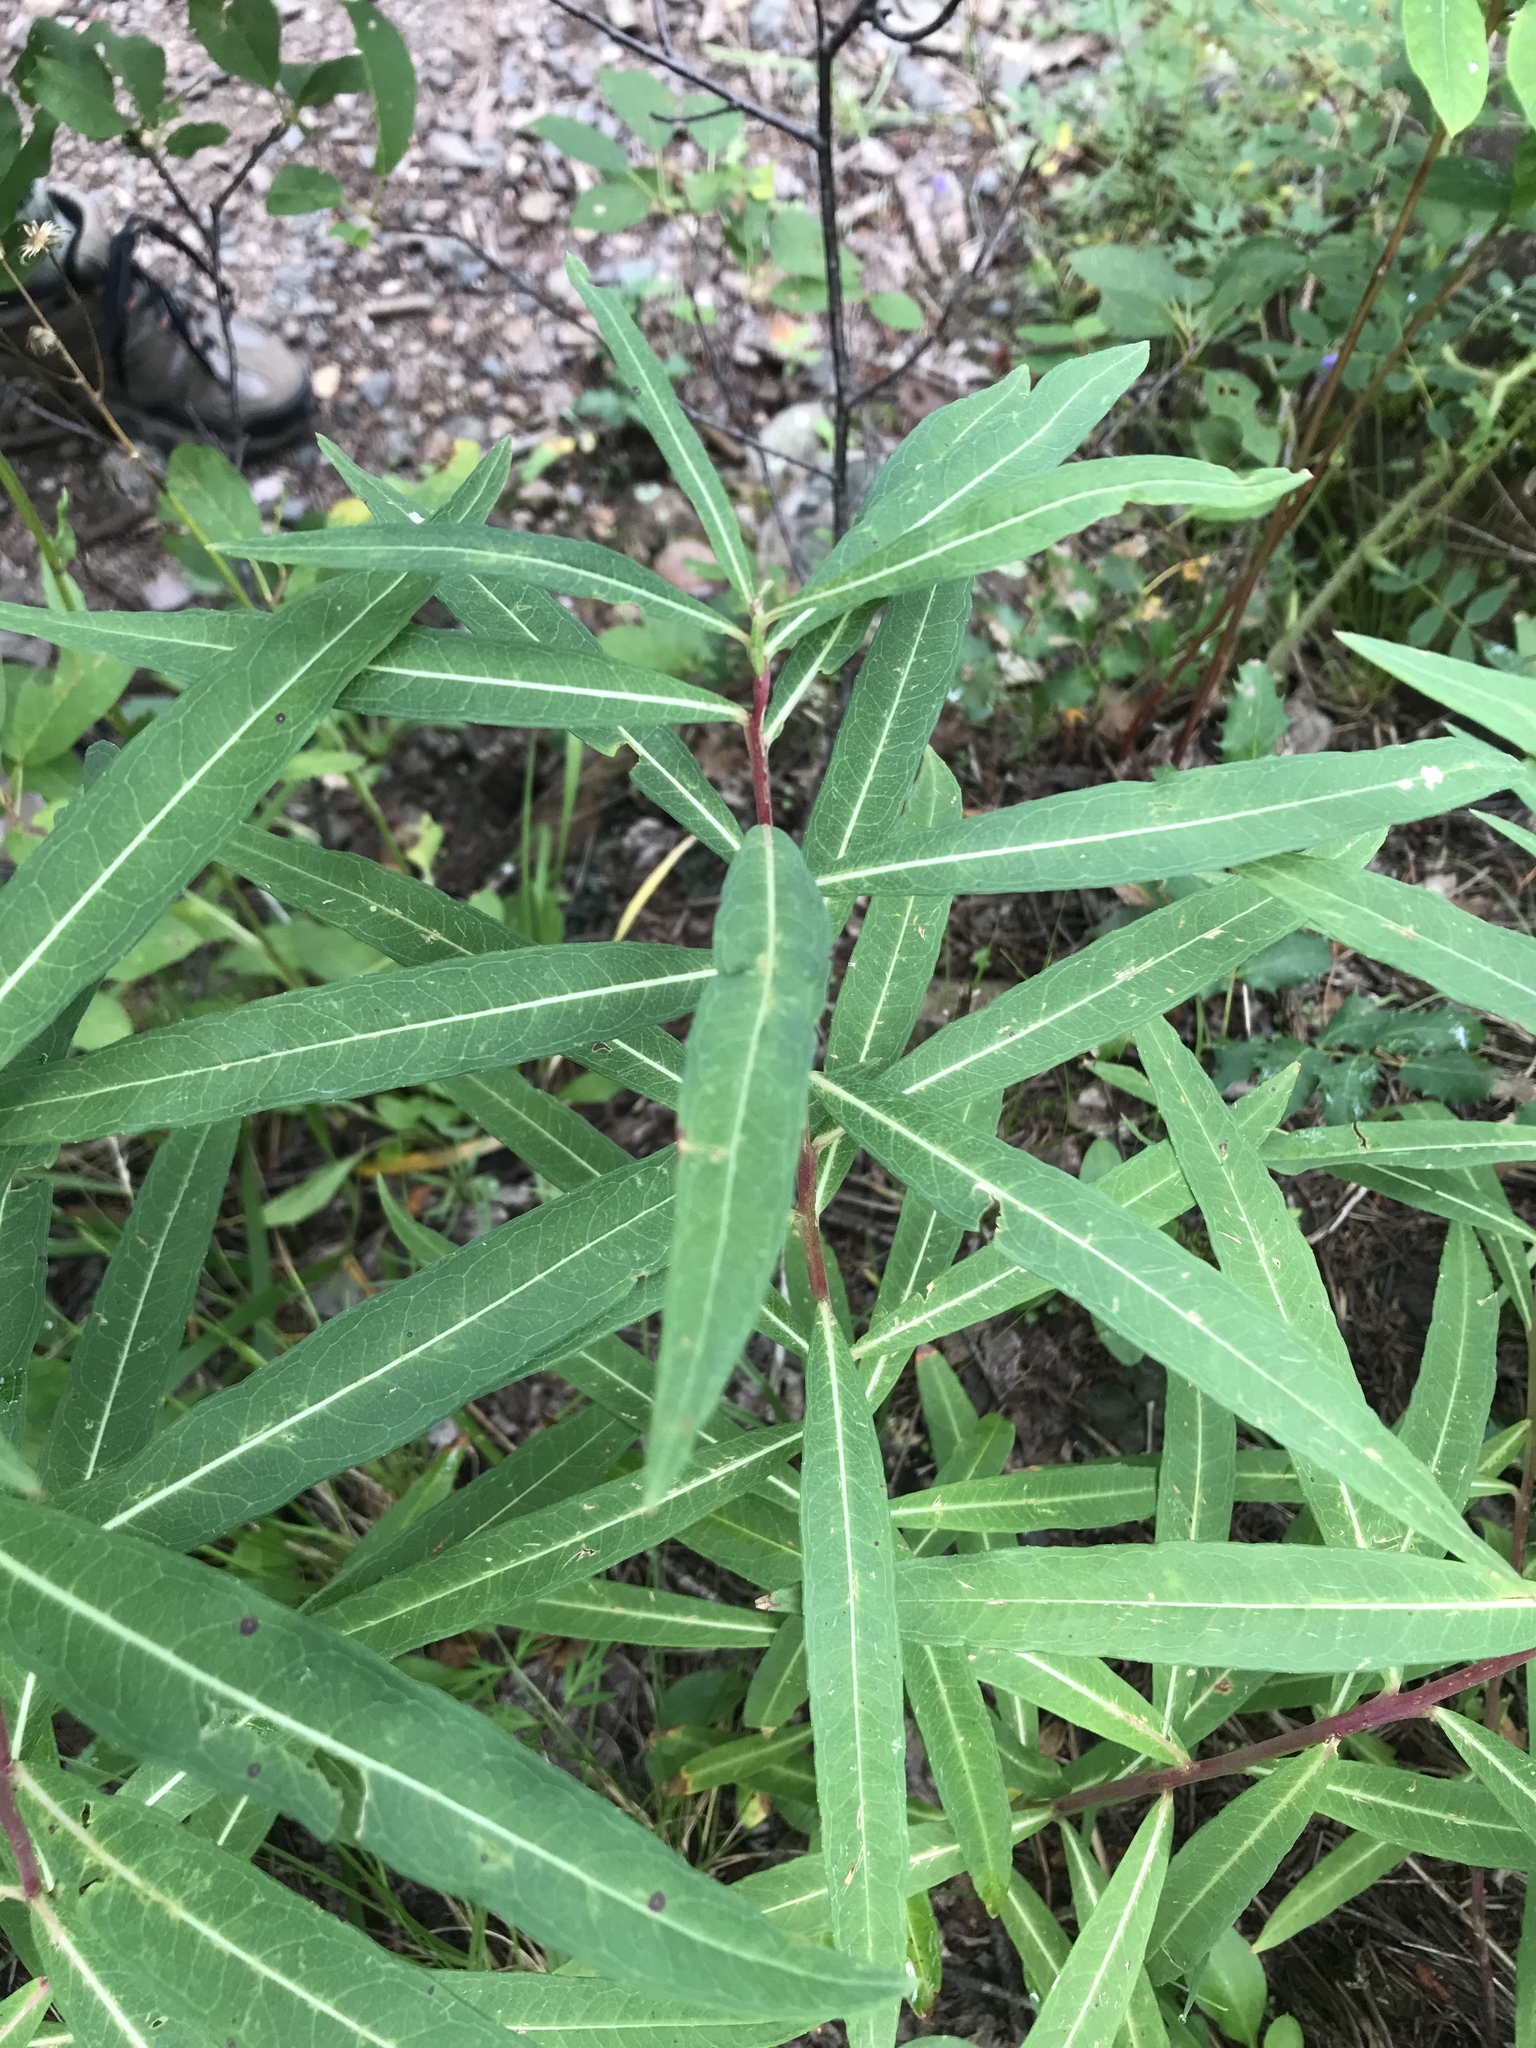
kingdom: Plantae
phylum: Tracheophyta
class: Magnoliopsida
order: Myrtales
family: Onagraceae
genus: Chamaenerion
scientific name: Chamaenerion angustifolium
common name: Fireweed
